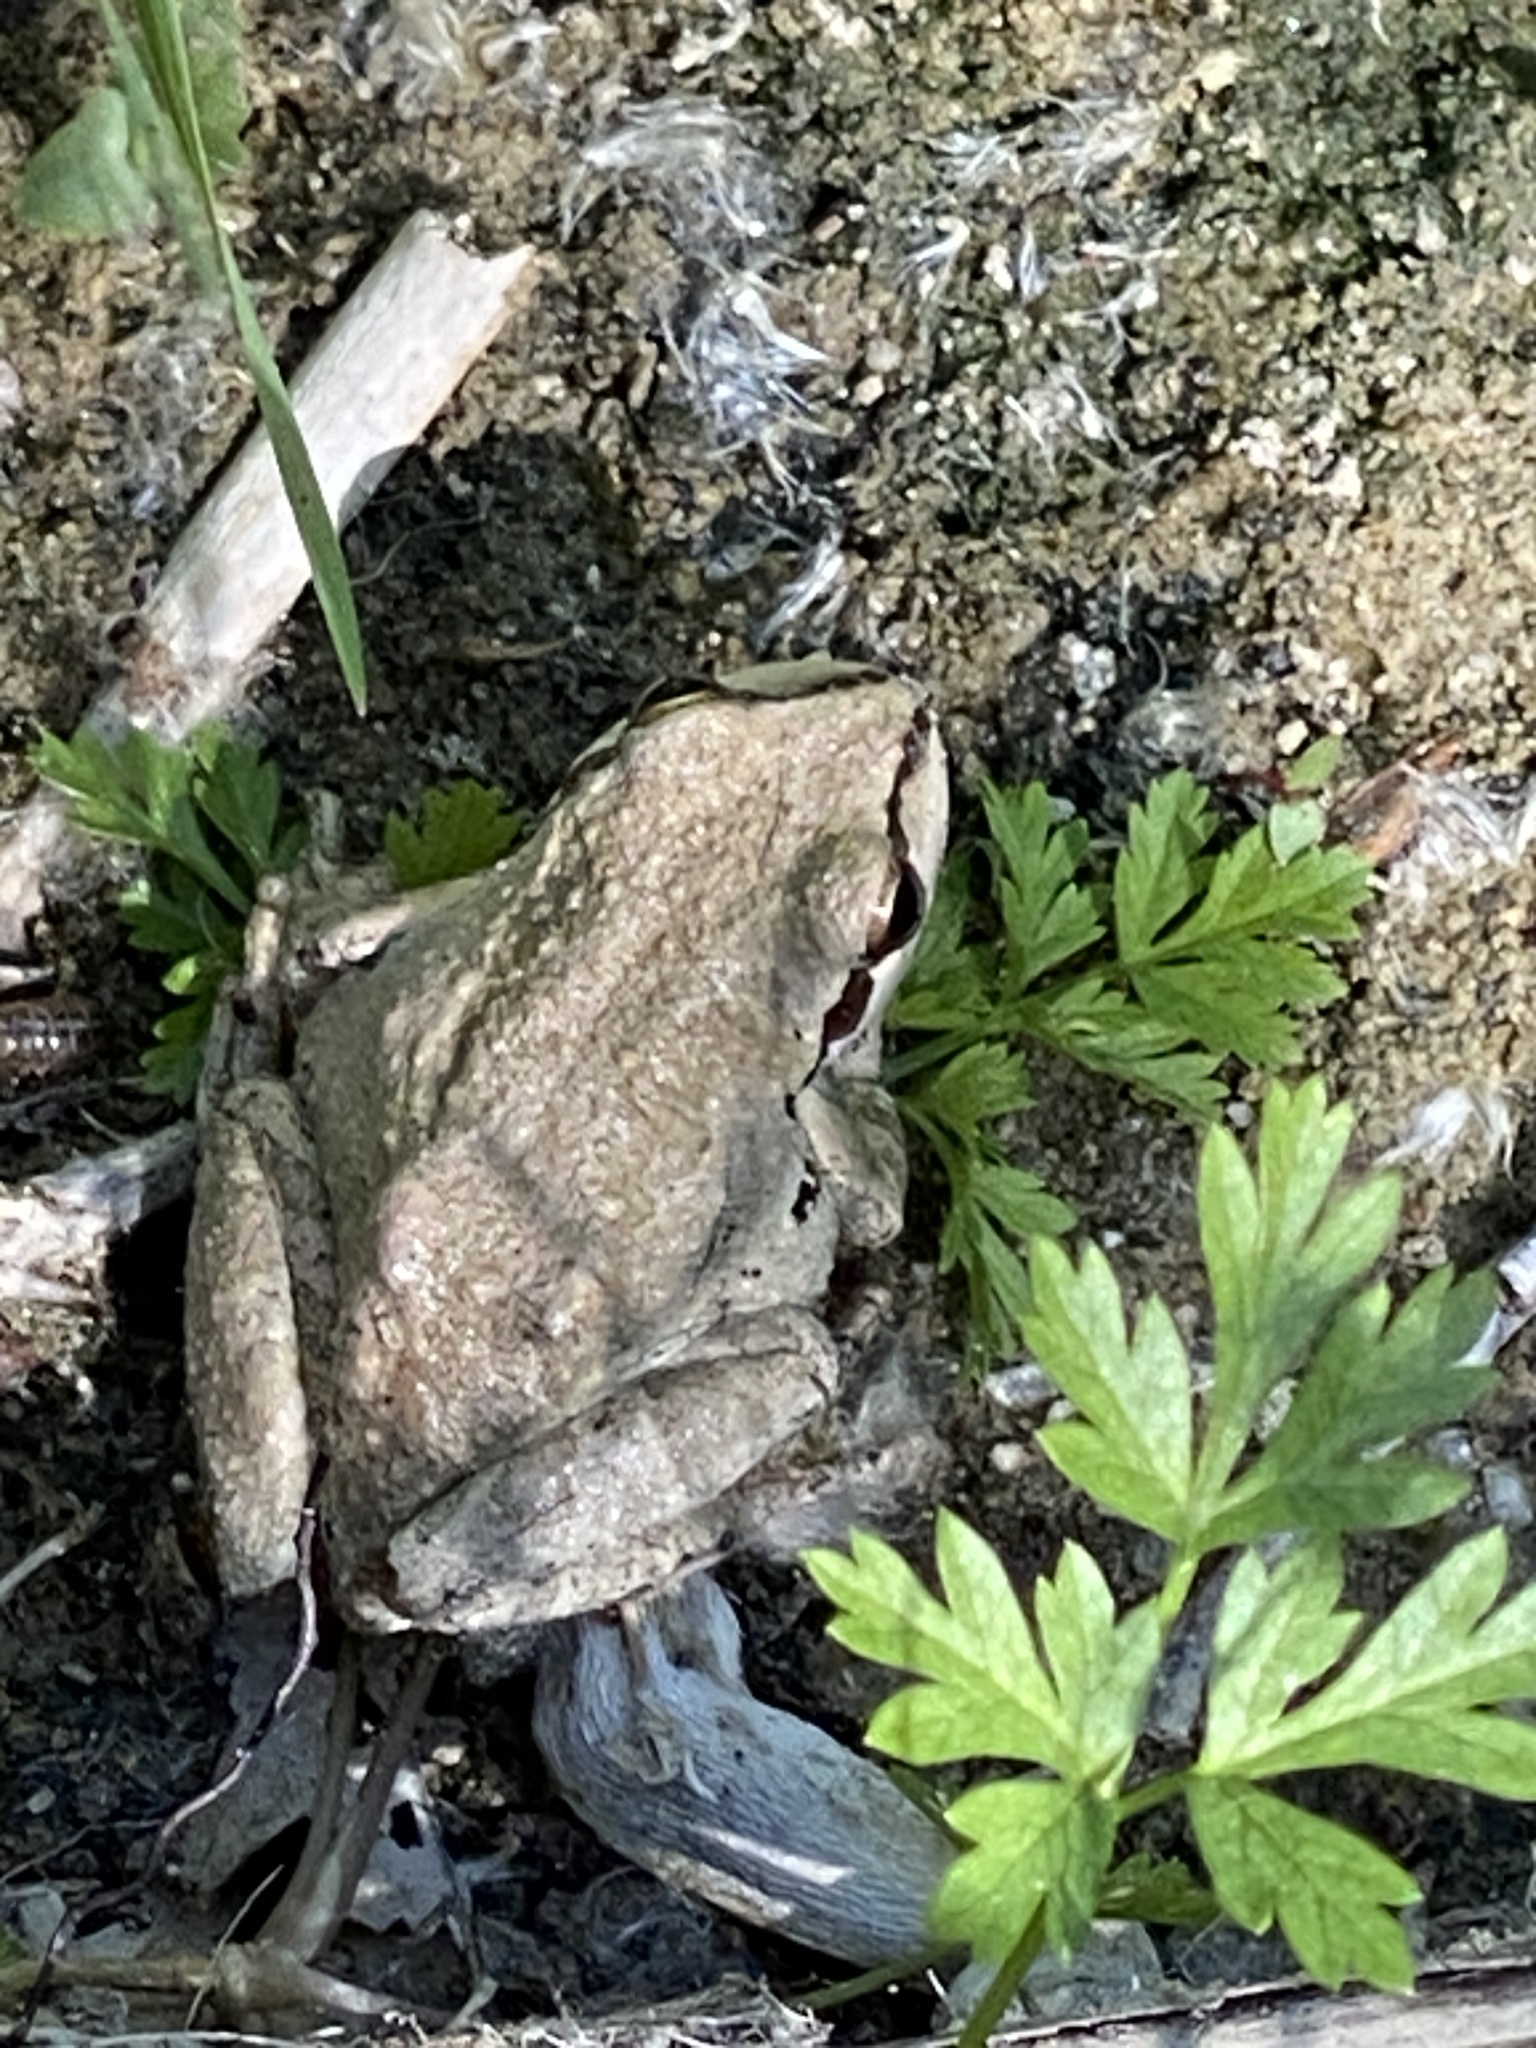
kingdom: Animalia
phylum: Chordata
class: Amphibia
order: Anura
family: Hylidae
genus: Pseudacris
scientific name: Pseudacris regilla
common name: Pacific chorus frog
